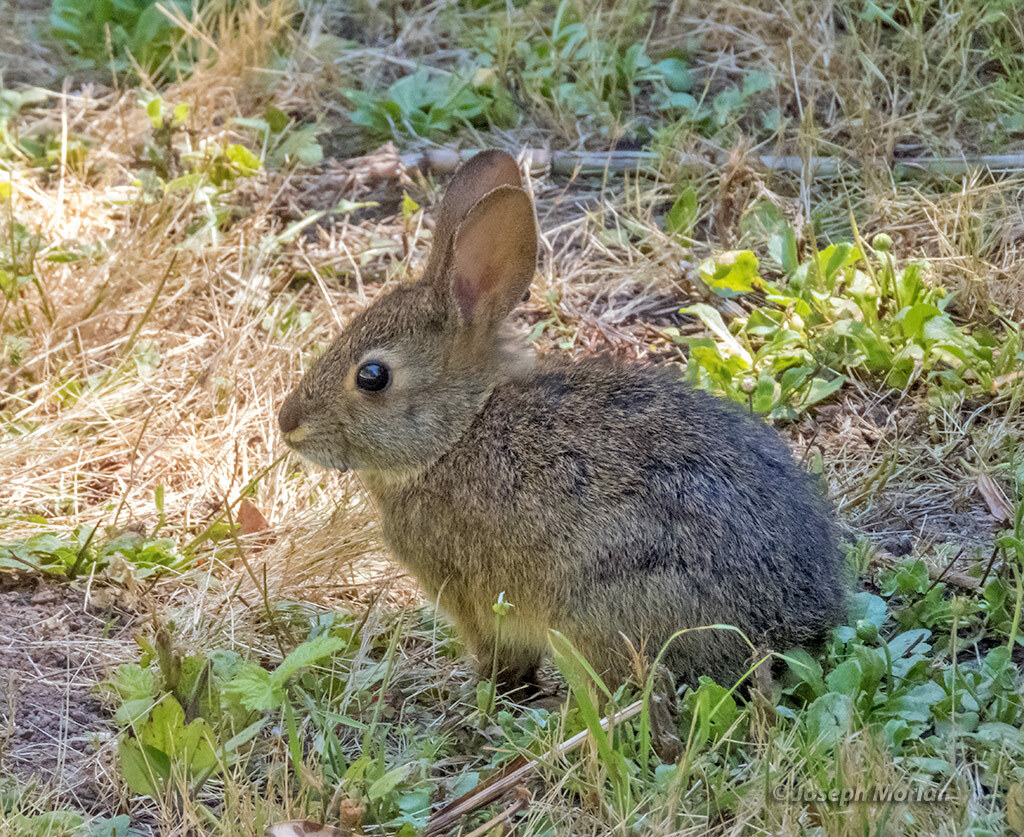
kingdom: Animalia
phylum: Chordata
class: Mammalia
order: Lagomorpha
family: Leporidae
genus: Sylvilagus
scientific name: Sylvilagus bachmani
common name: Brush rabbit
